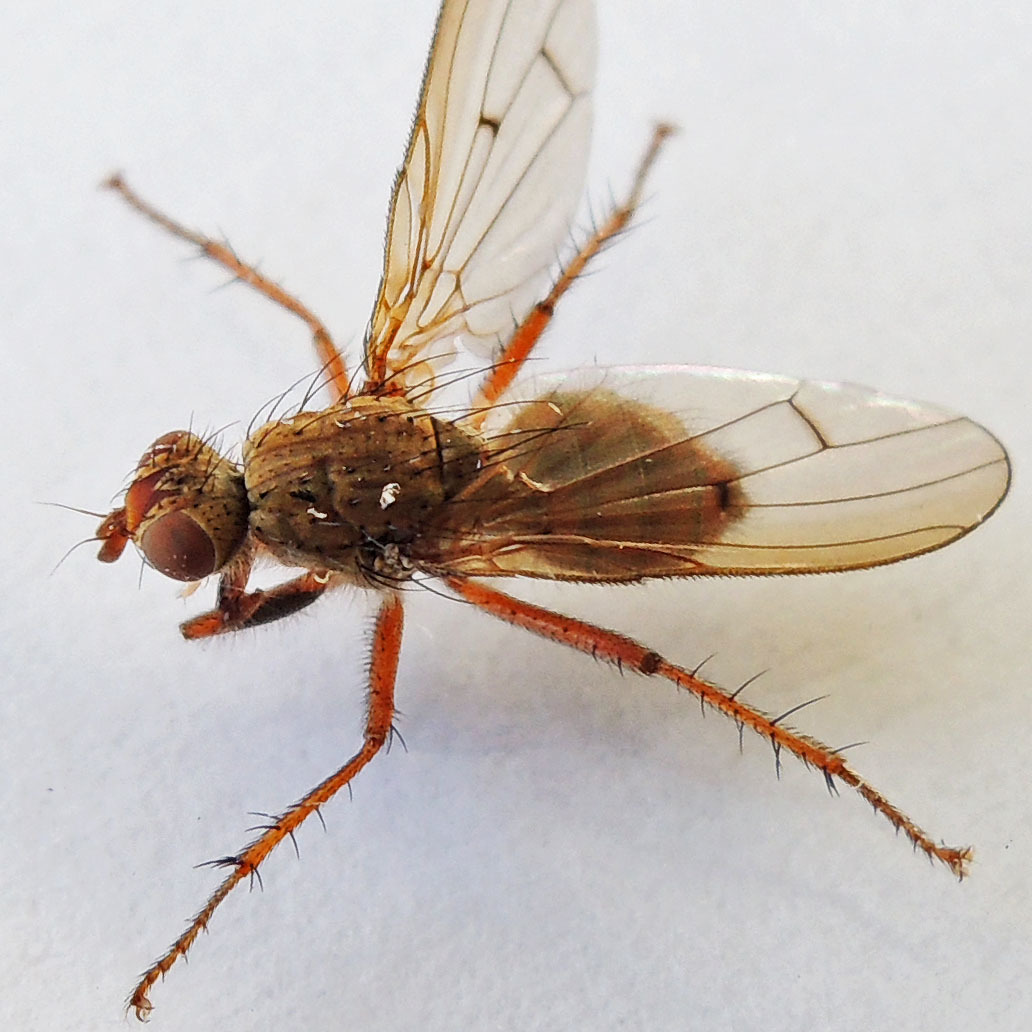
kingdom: Animalia
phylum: Arthropoda
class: Insecta
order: Diptera
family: Scathophagidae
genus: Scathophaga
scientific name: Scathophaga furcata
